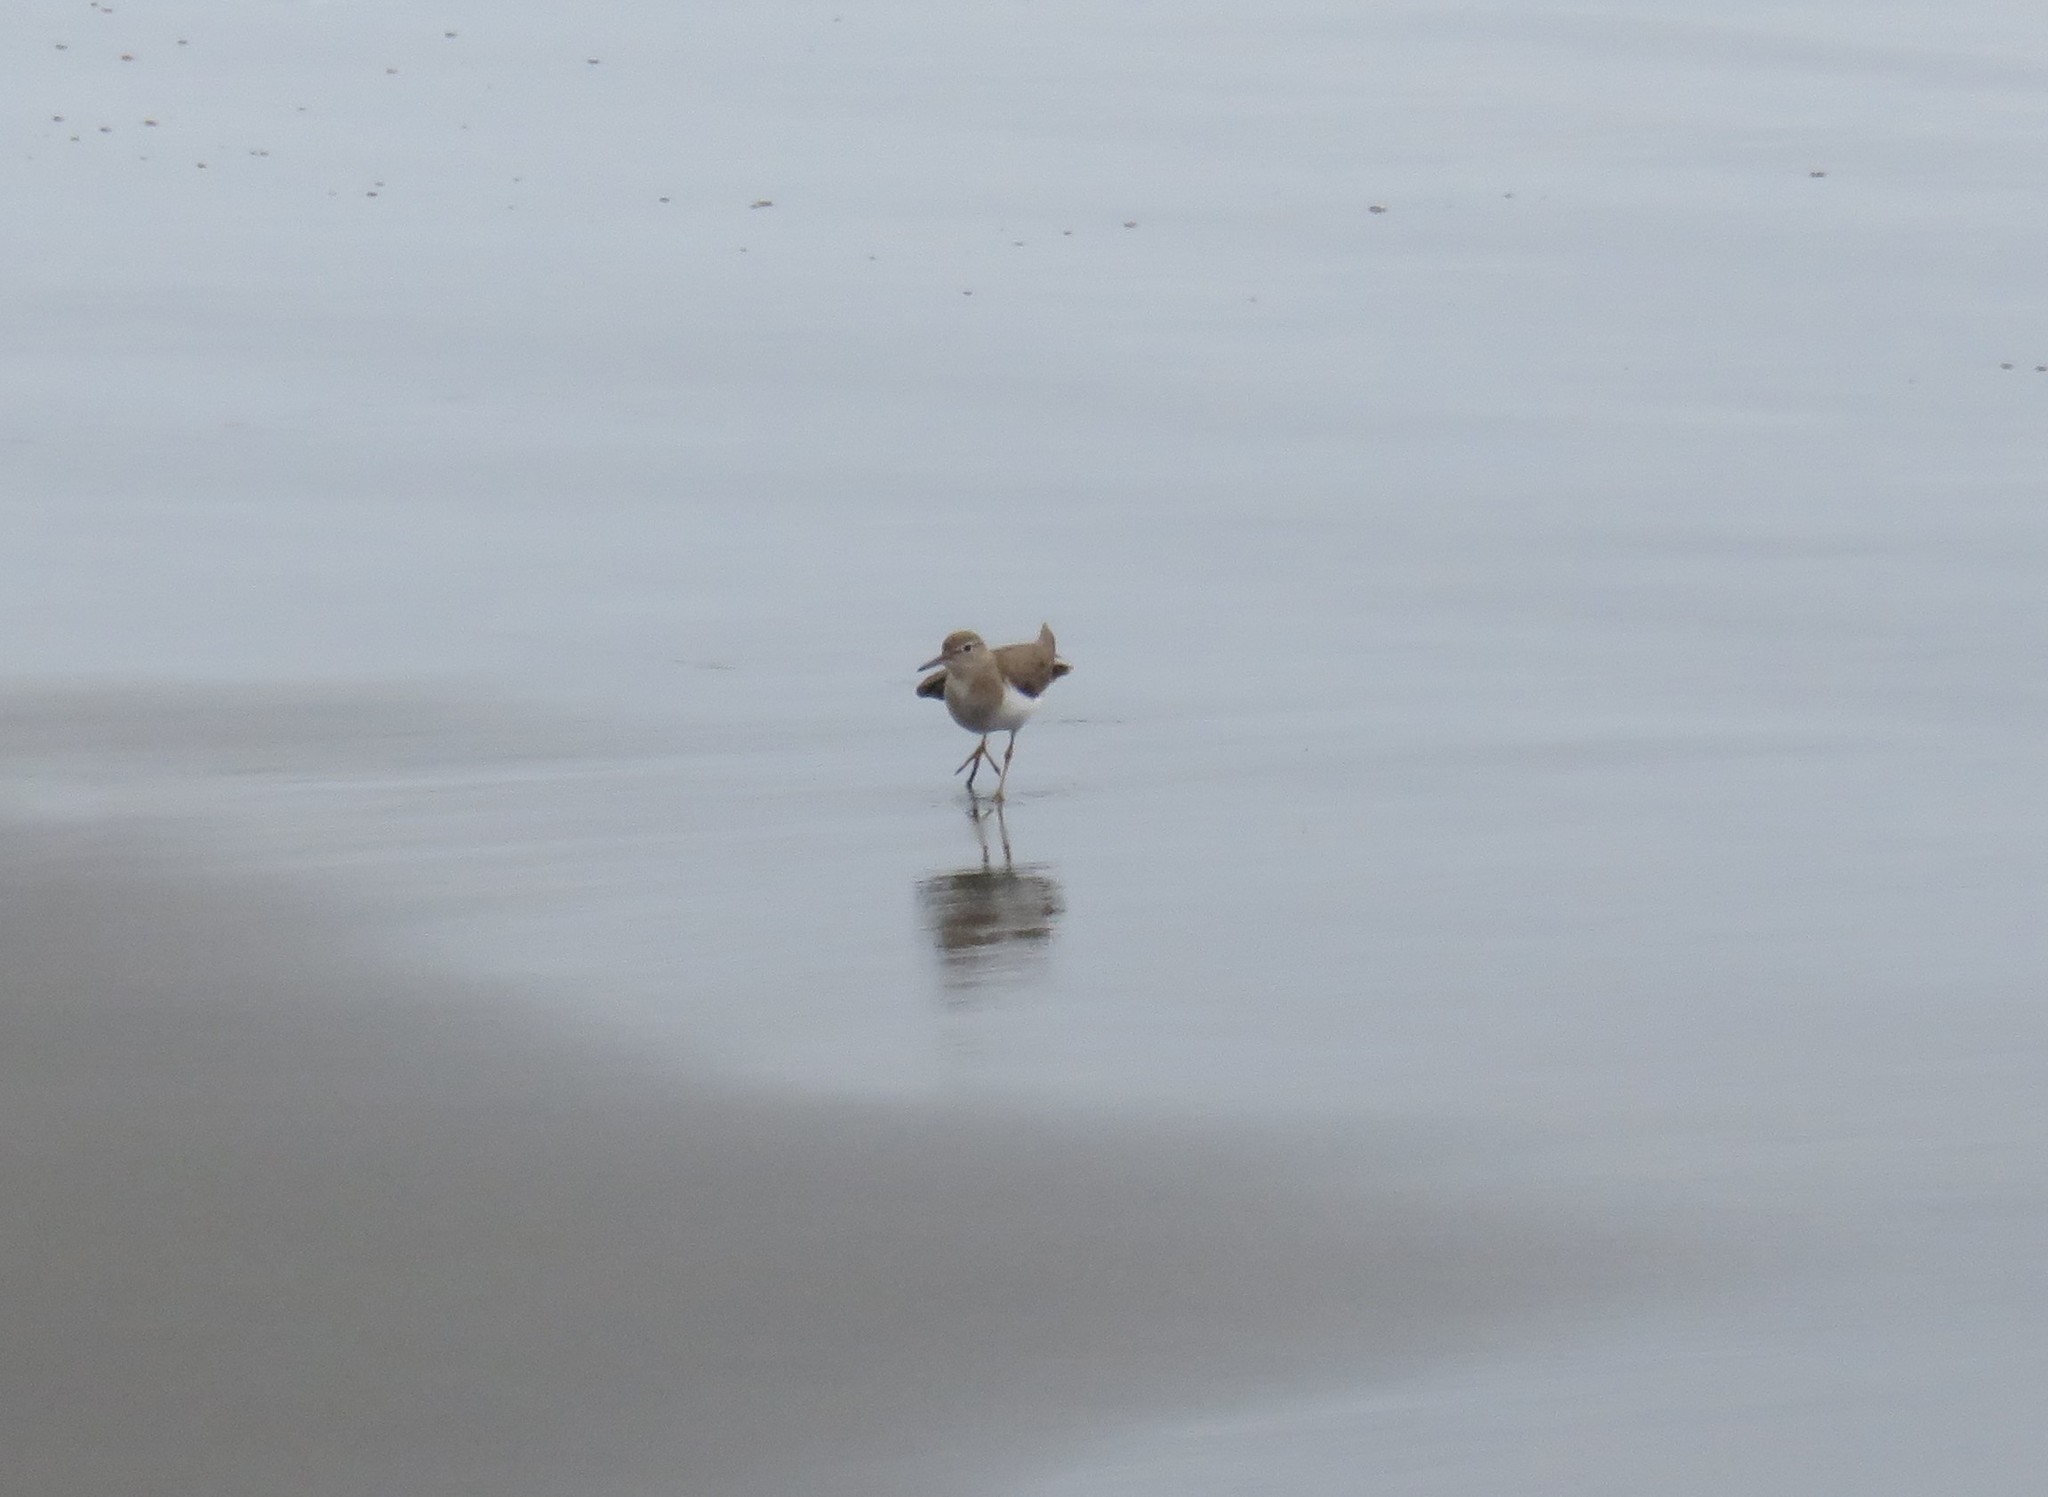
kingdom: Animalia
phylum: Chordata
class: Aves
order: Charadriiformes
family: Scolopacidae
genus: Actitis
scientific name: Actitis macularius
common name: Spotted sandpiper
